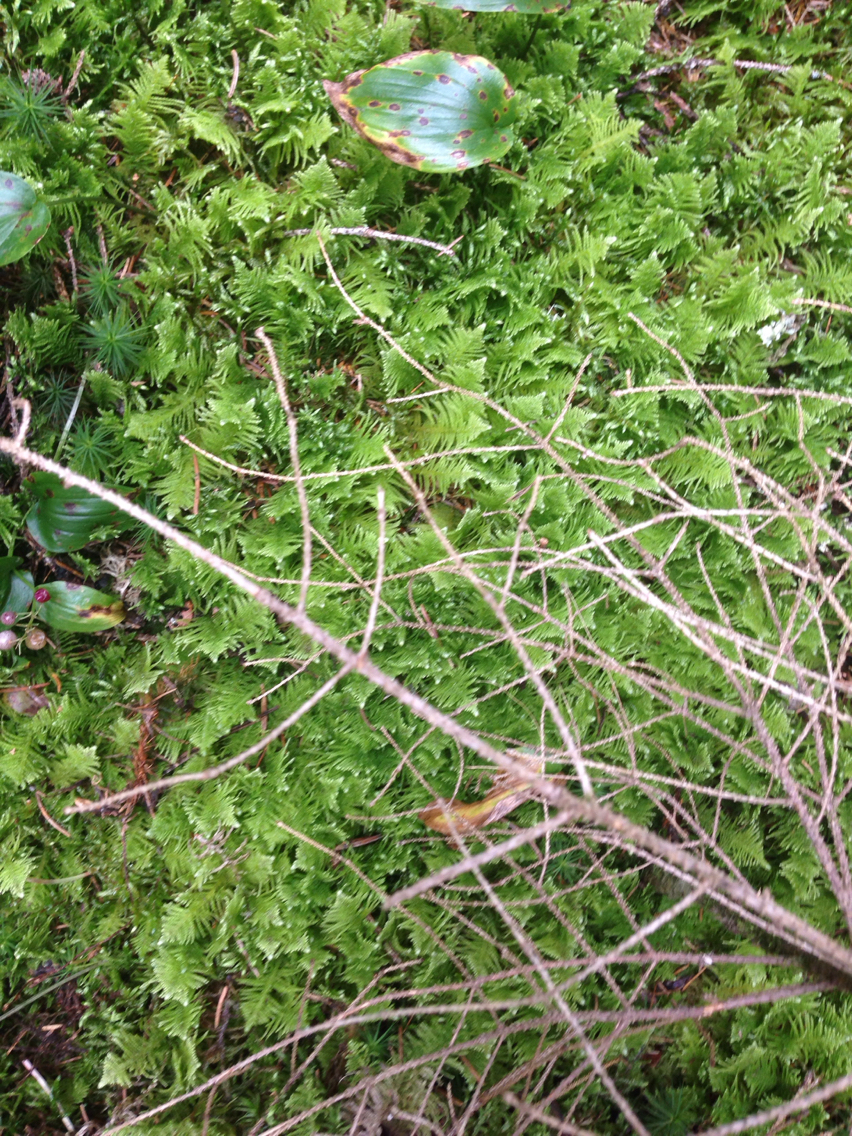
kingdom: Plantae
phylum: Bryophyta
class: Bryopsida
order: Hypnales
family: Pylaisiaceae
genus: Ptilium
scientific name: Ptilium crista-castrensis
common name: Knight's plume moss
